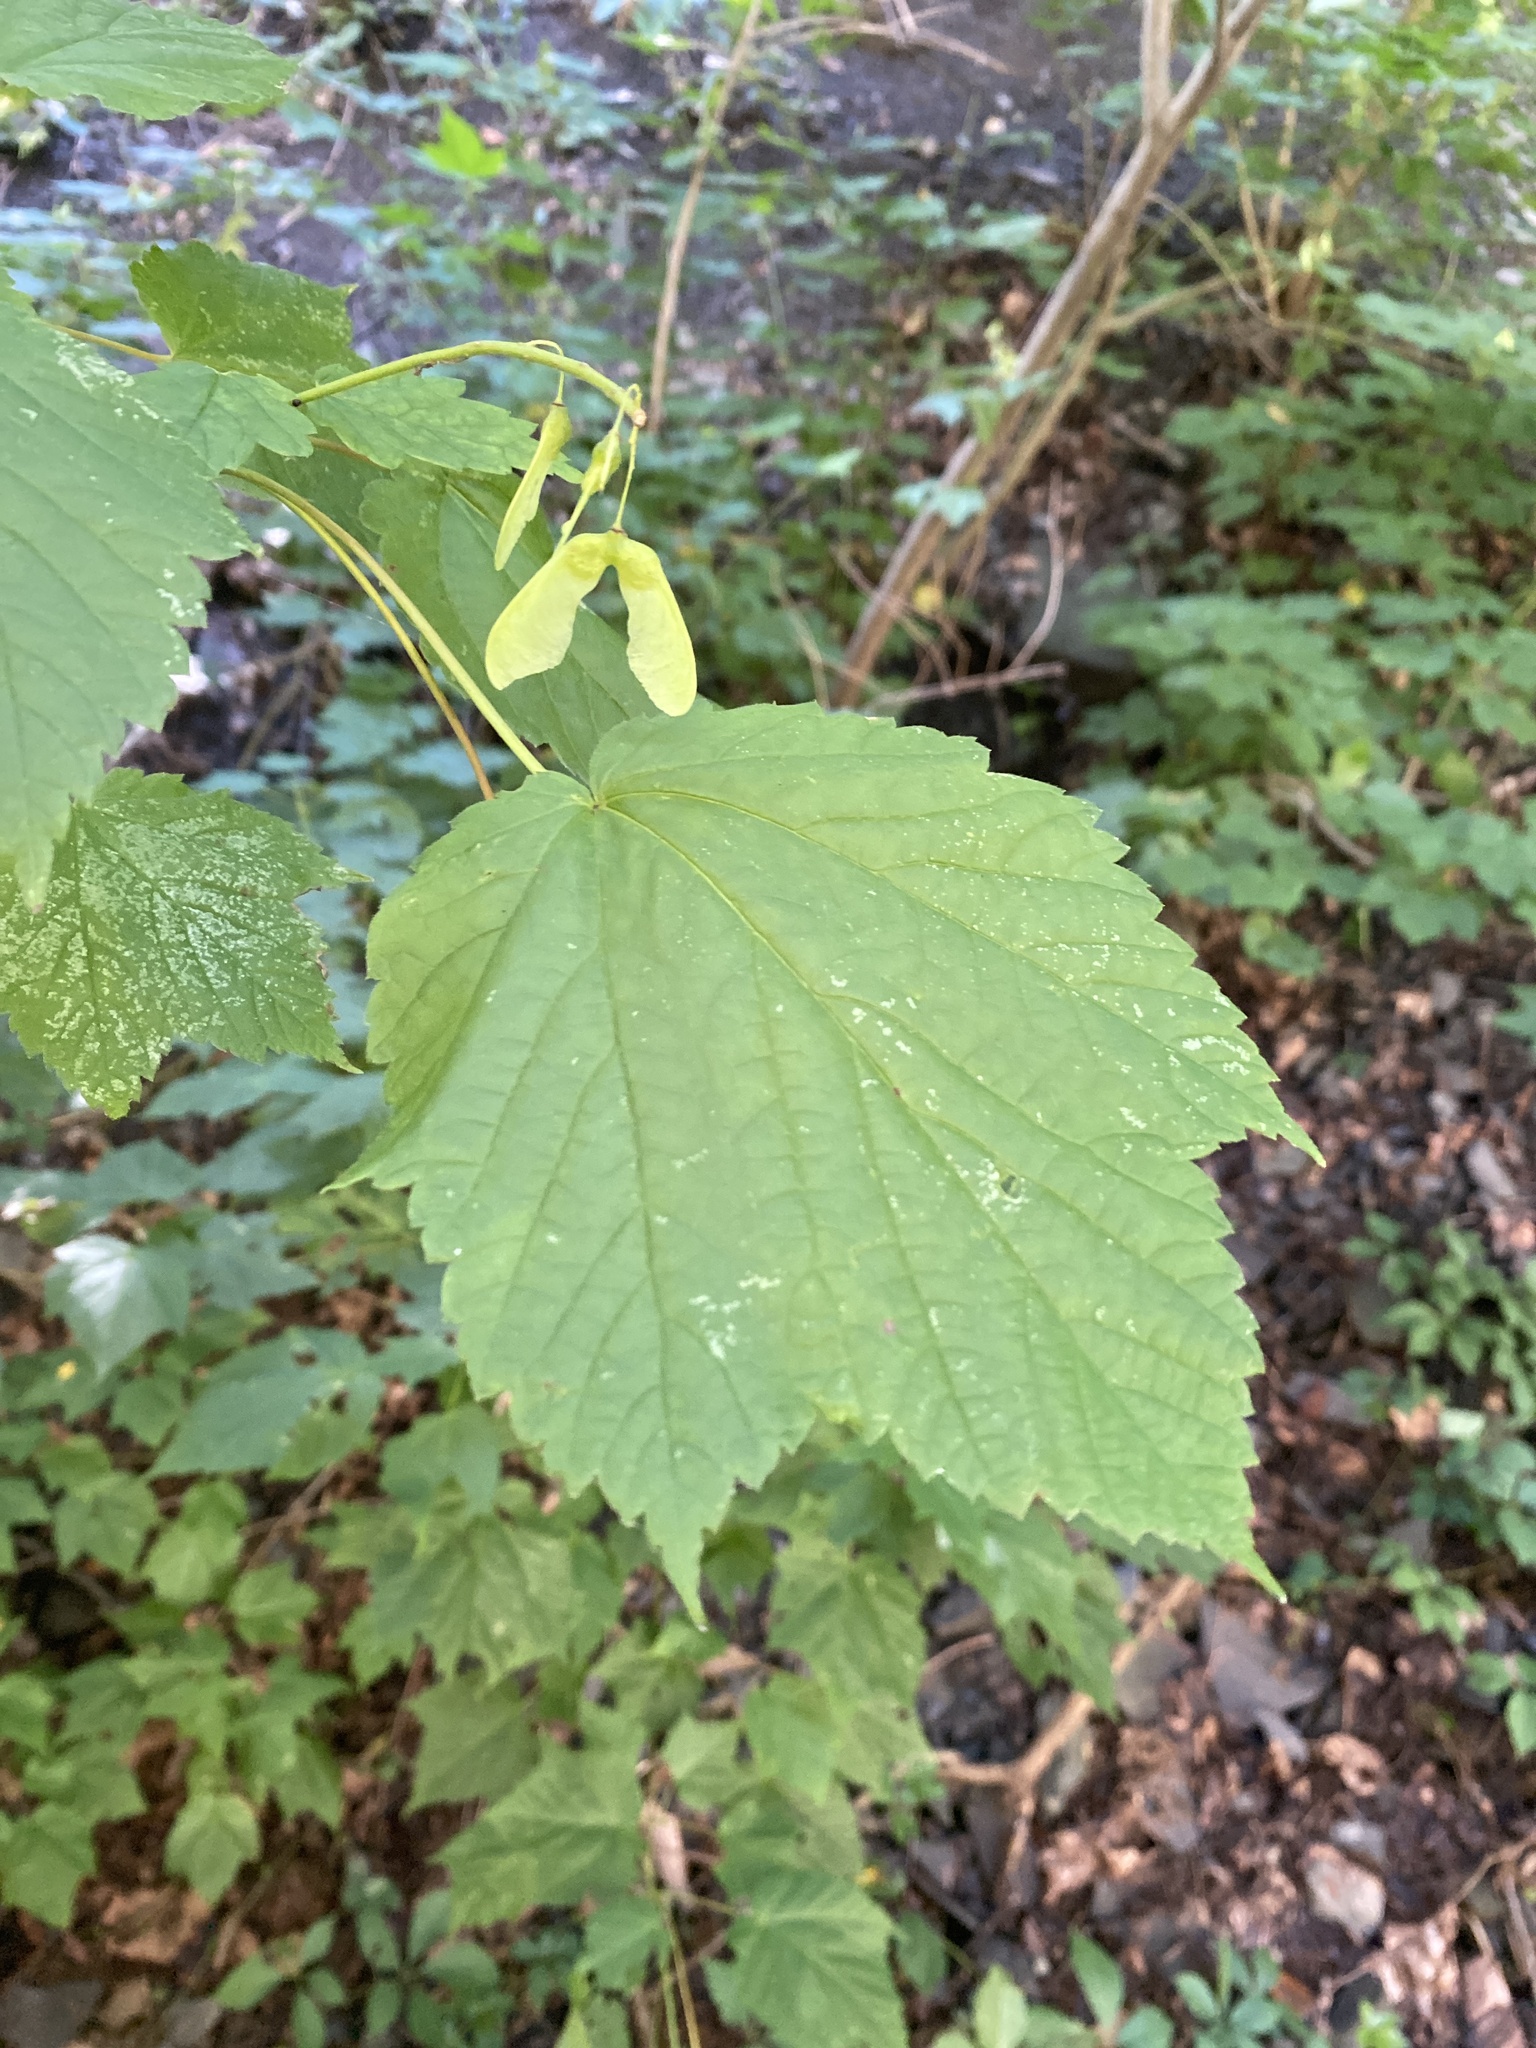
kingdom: Plantae
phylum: Tracheophyta
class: Magnoliopsida
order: Sapindales
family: Sapindaceae
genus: Acer
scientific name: Acer spicatum
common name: Mountain maple
